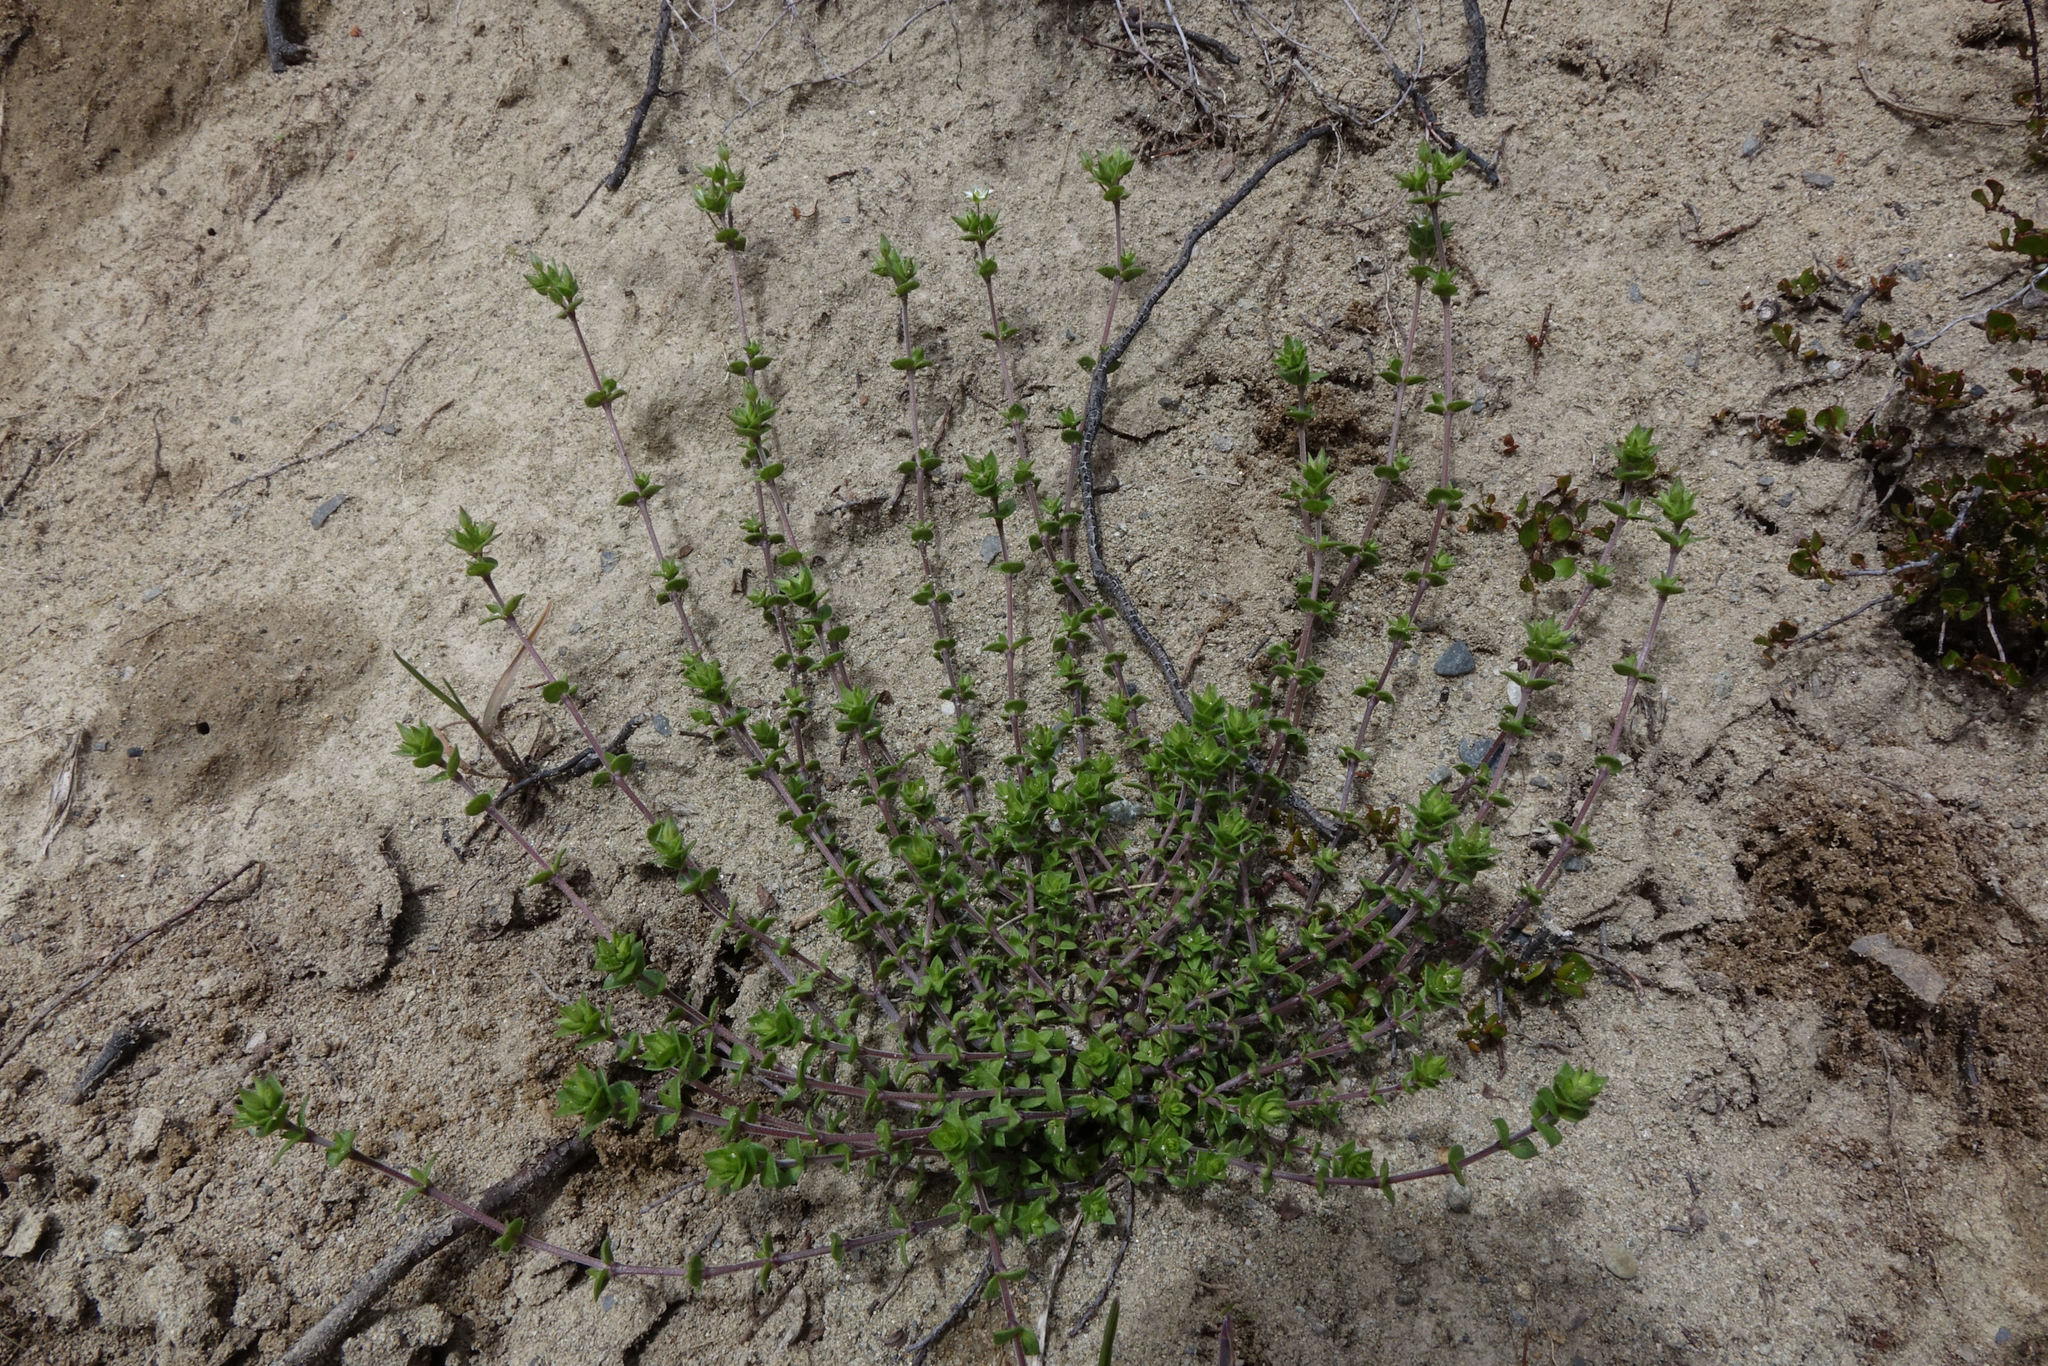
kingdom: Plantae
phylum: Tracheophyta
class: Magnoliopsida
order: Caryophyllales
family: Caryophyllaceae
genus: Arenaria
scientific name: Arenaria serpyllifolia
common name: Thyme-leaved sandwort
